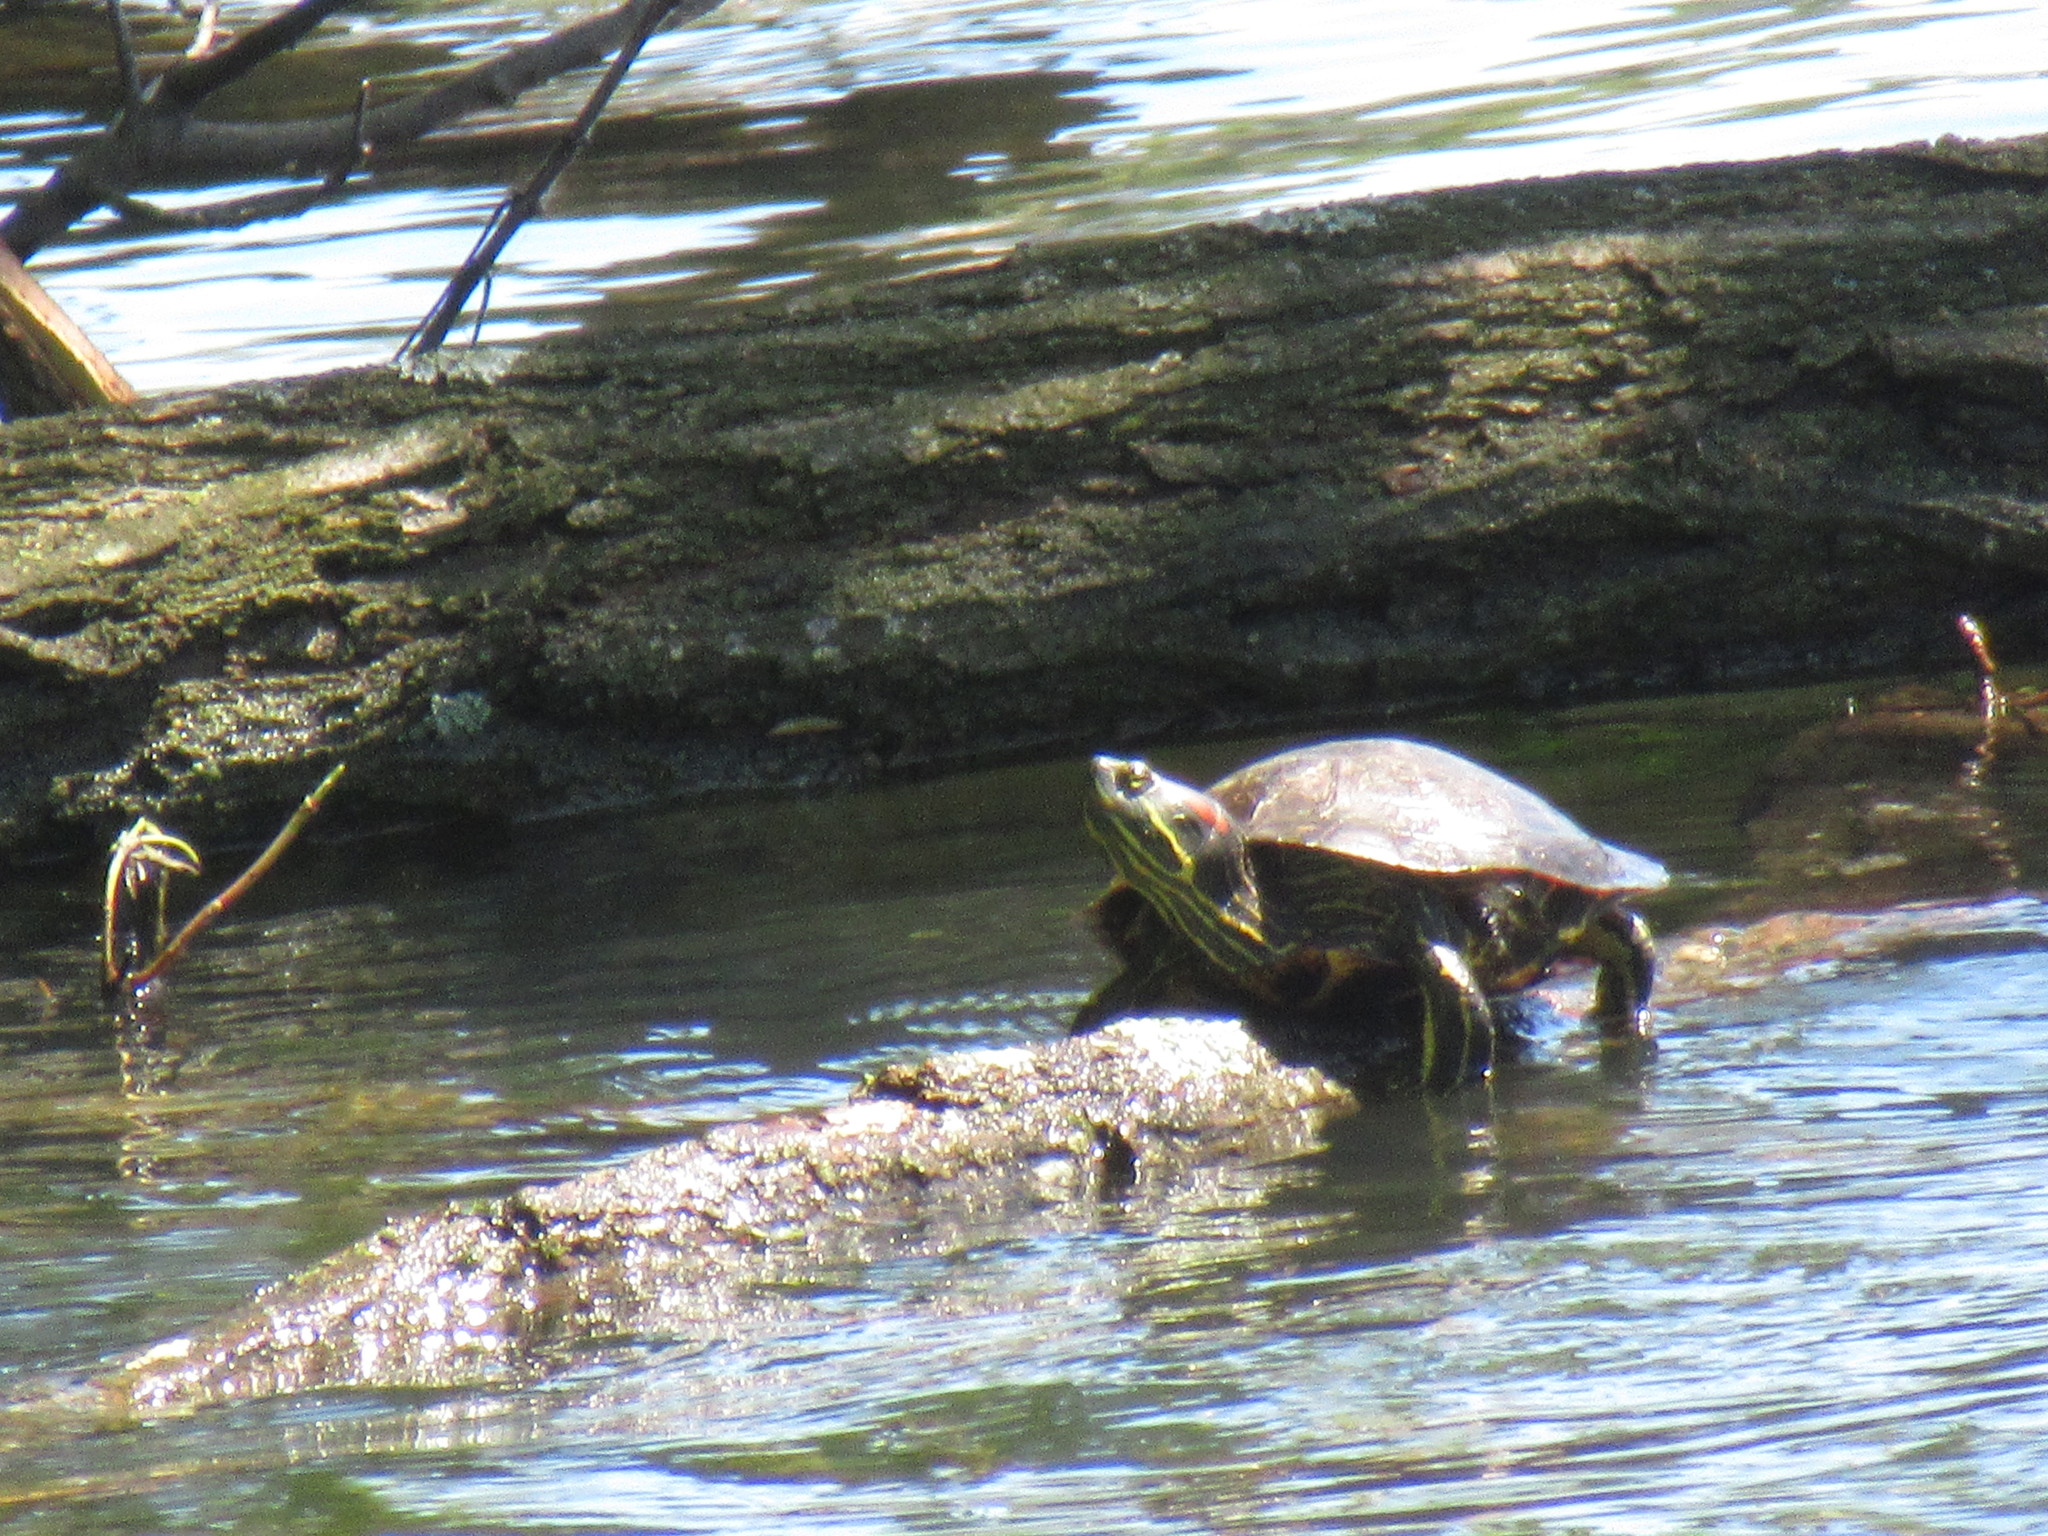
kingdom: Animalia
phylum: Chordata
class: Testudines
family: Emydidae
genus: Trachemys
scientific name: Trachemys scripta
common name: Slider
